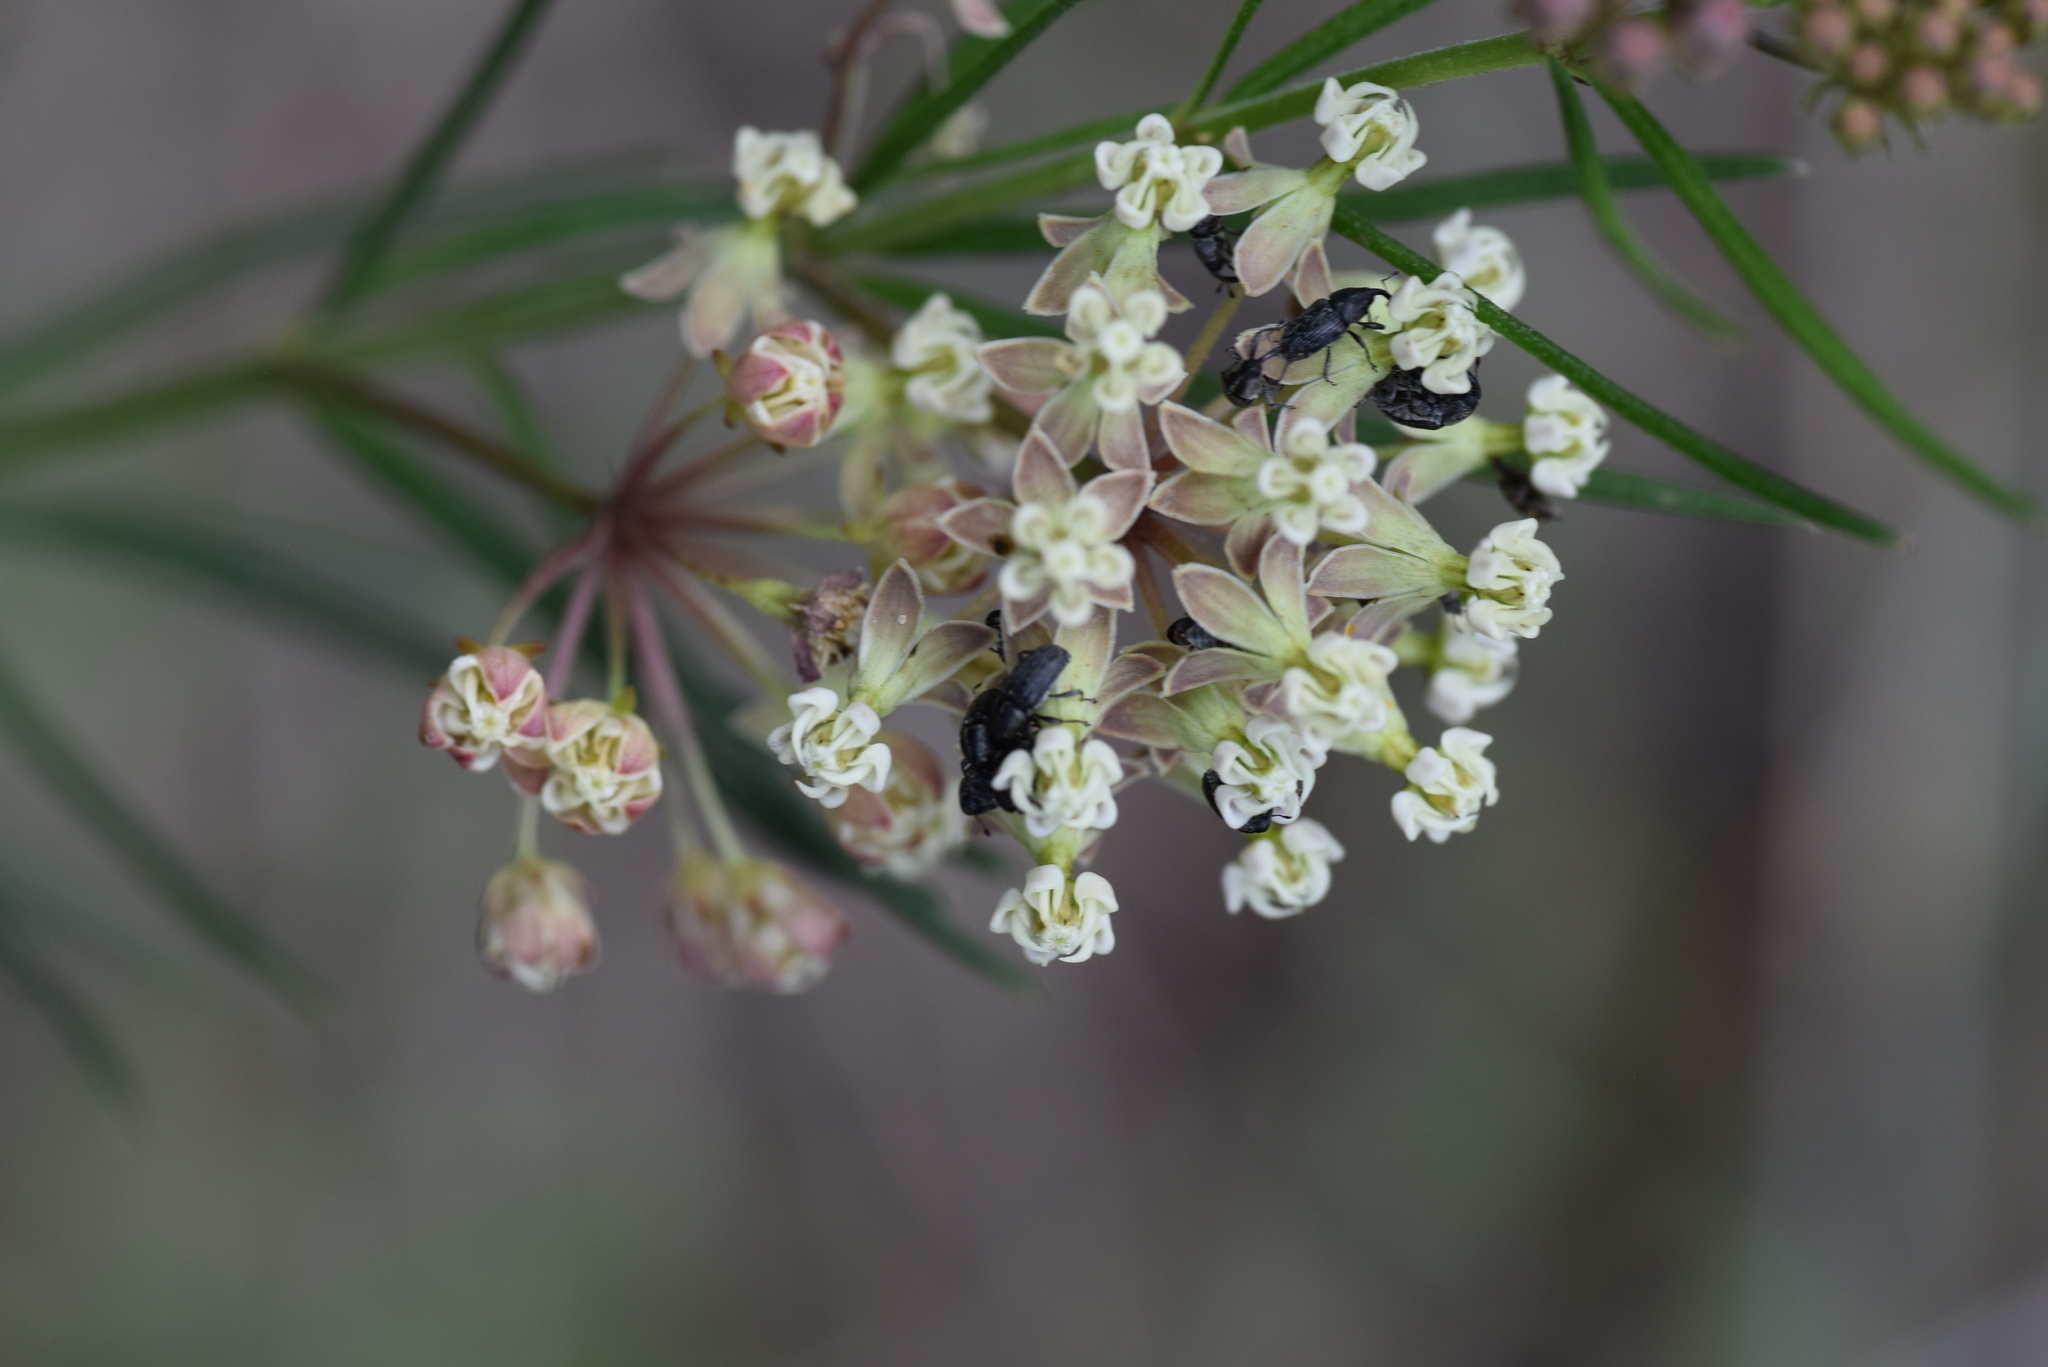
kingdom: Plantae
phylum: Tracheophyta
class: Magnoliopsida
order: Gentianales
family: Apocynaceae
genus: Asclepias
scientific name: Asclepias verticillata
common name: Eastern whorled milkweed
